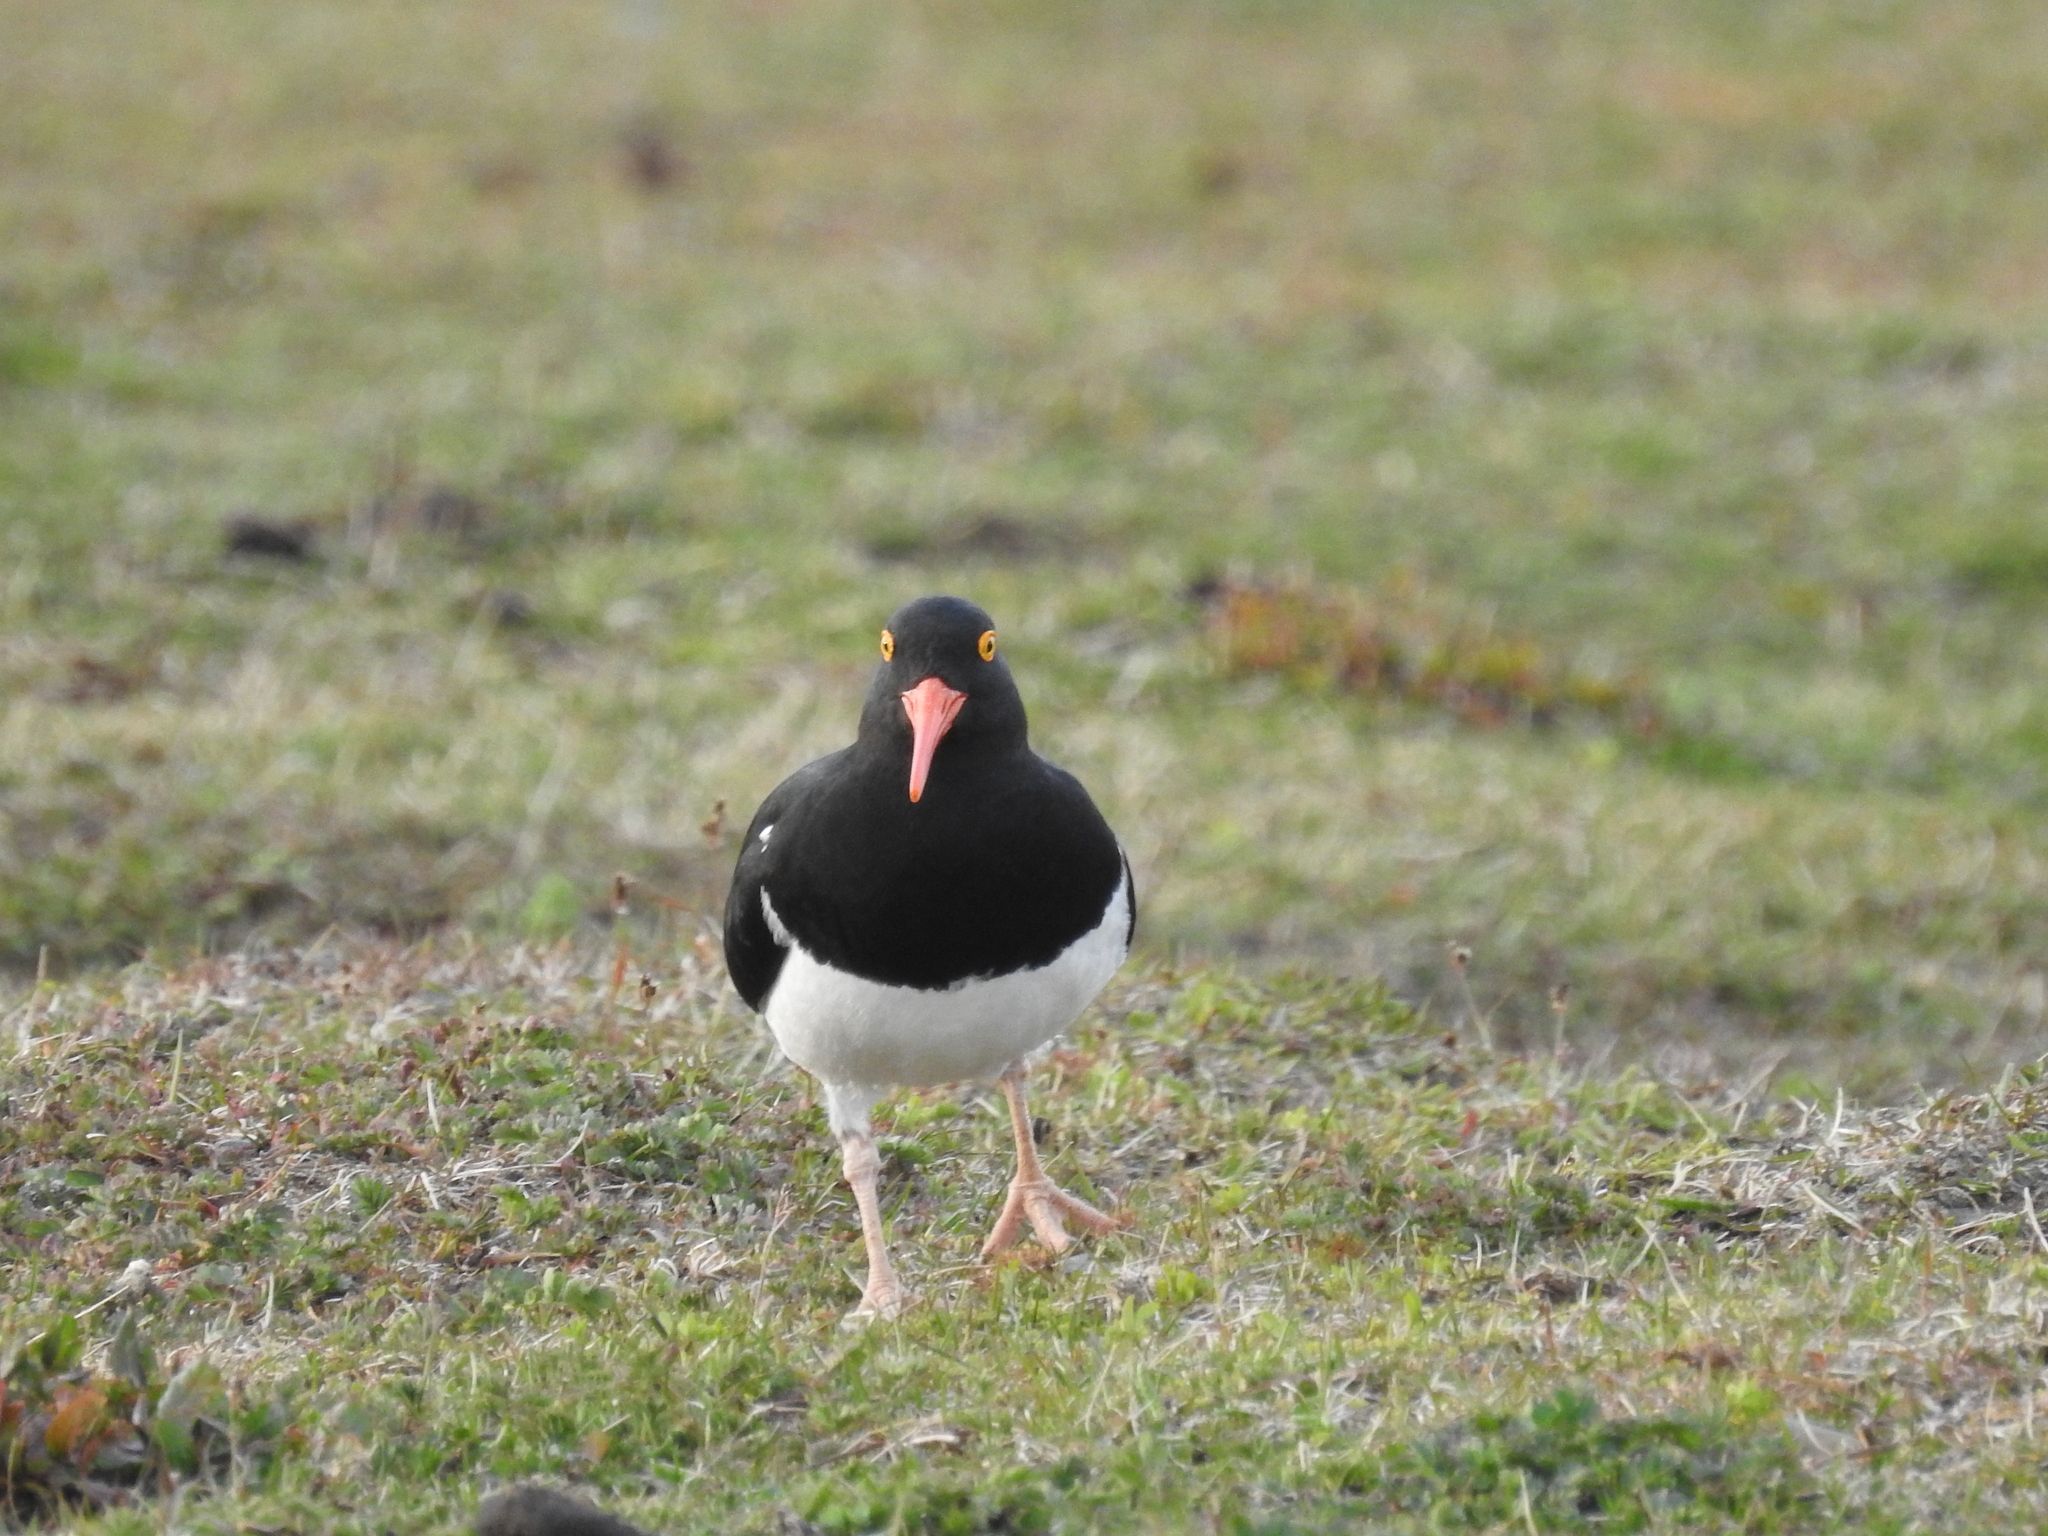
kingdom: Animalia
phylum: Chordata
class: Aves
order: Charadriiformes
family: Haematopodidae
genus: Haematopus
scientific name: Haematopus leucopodus
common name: Magellanic oystercatcher
